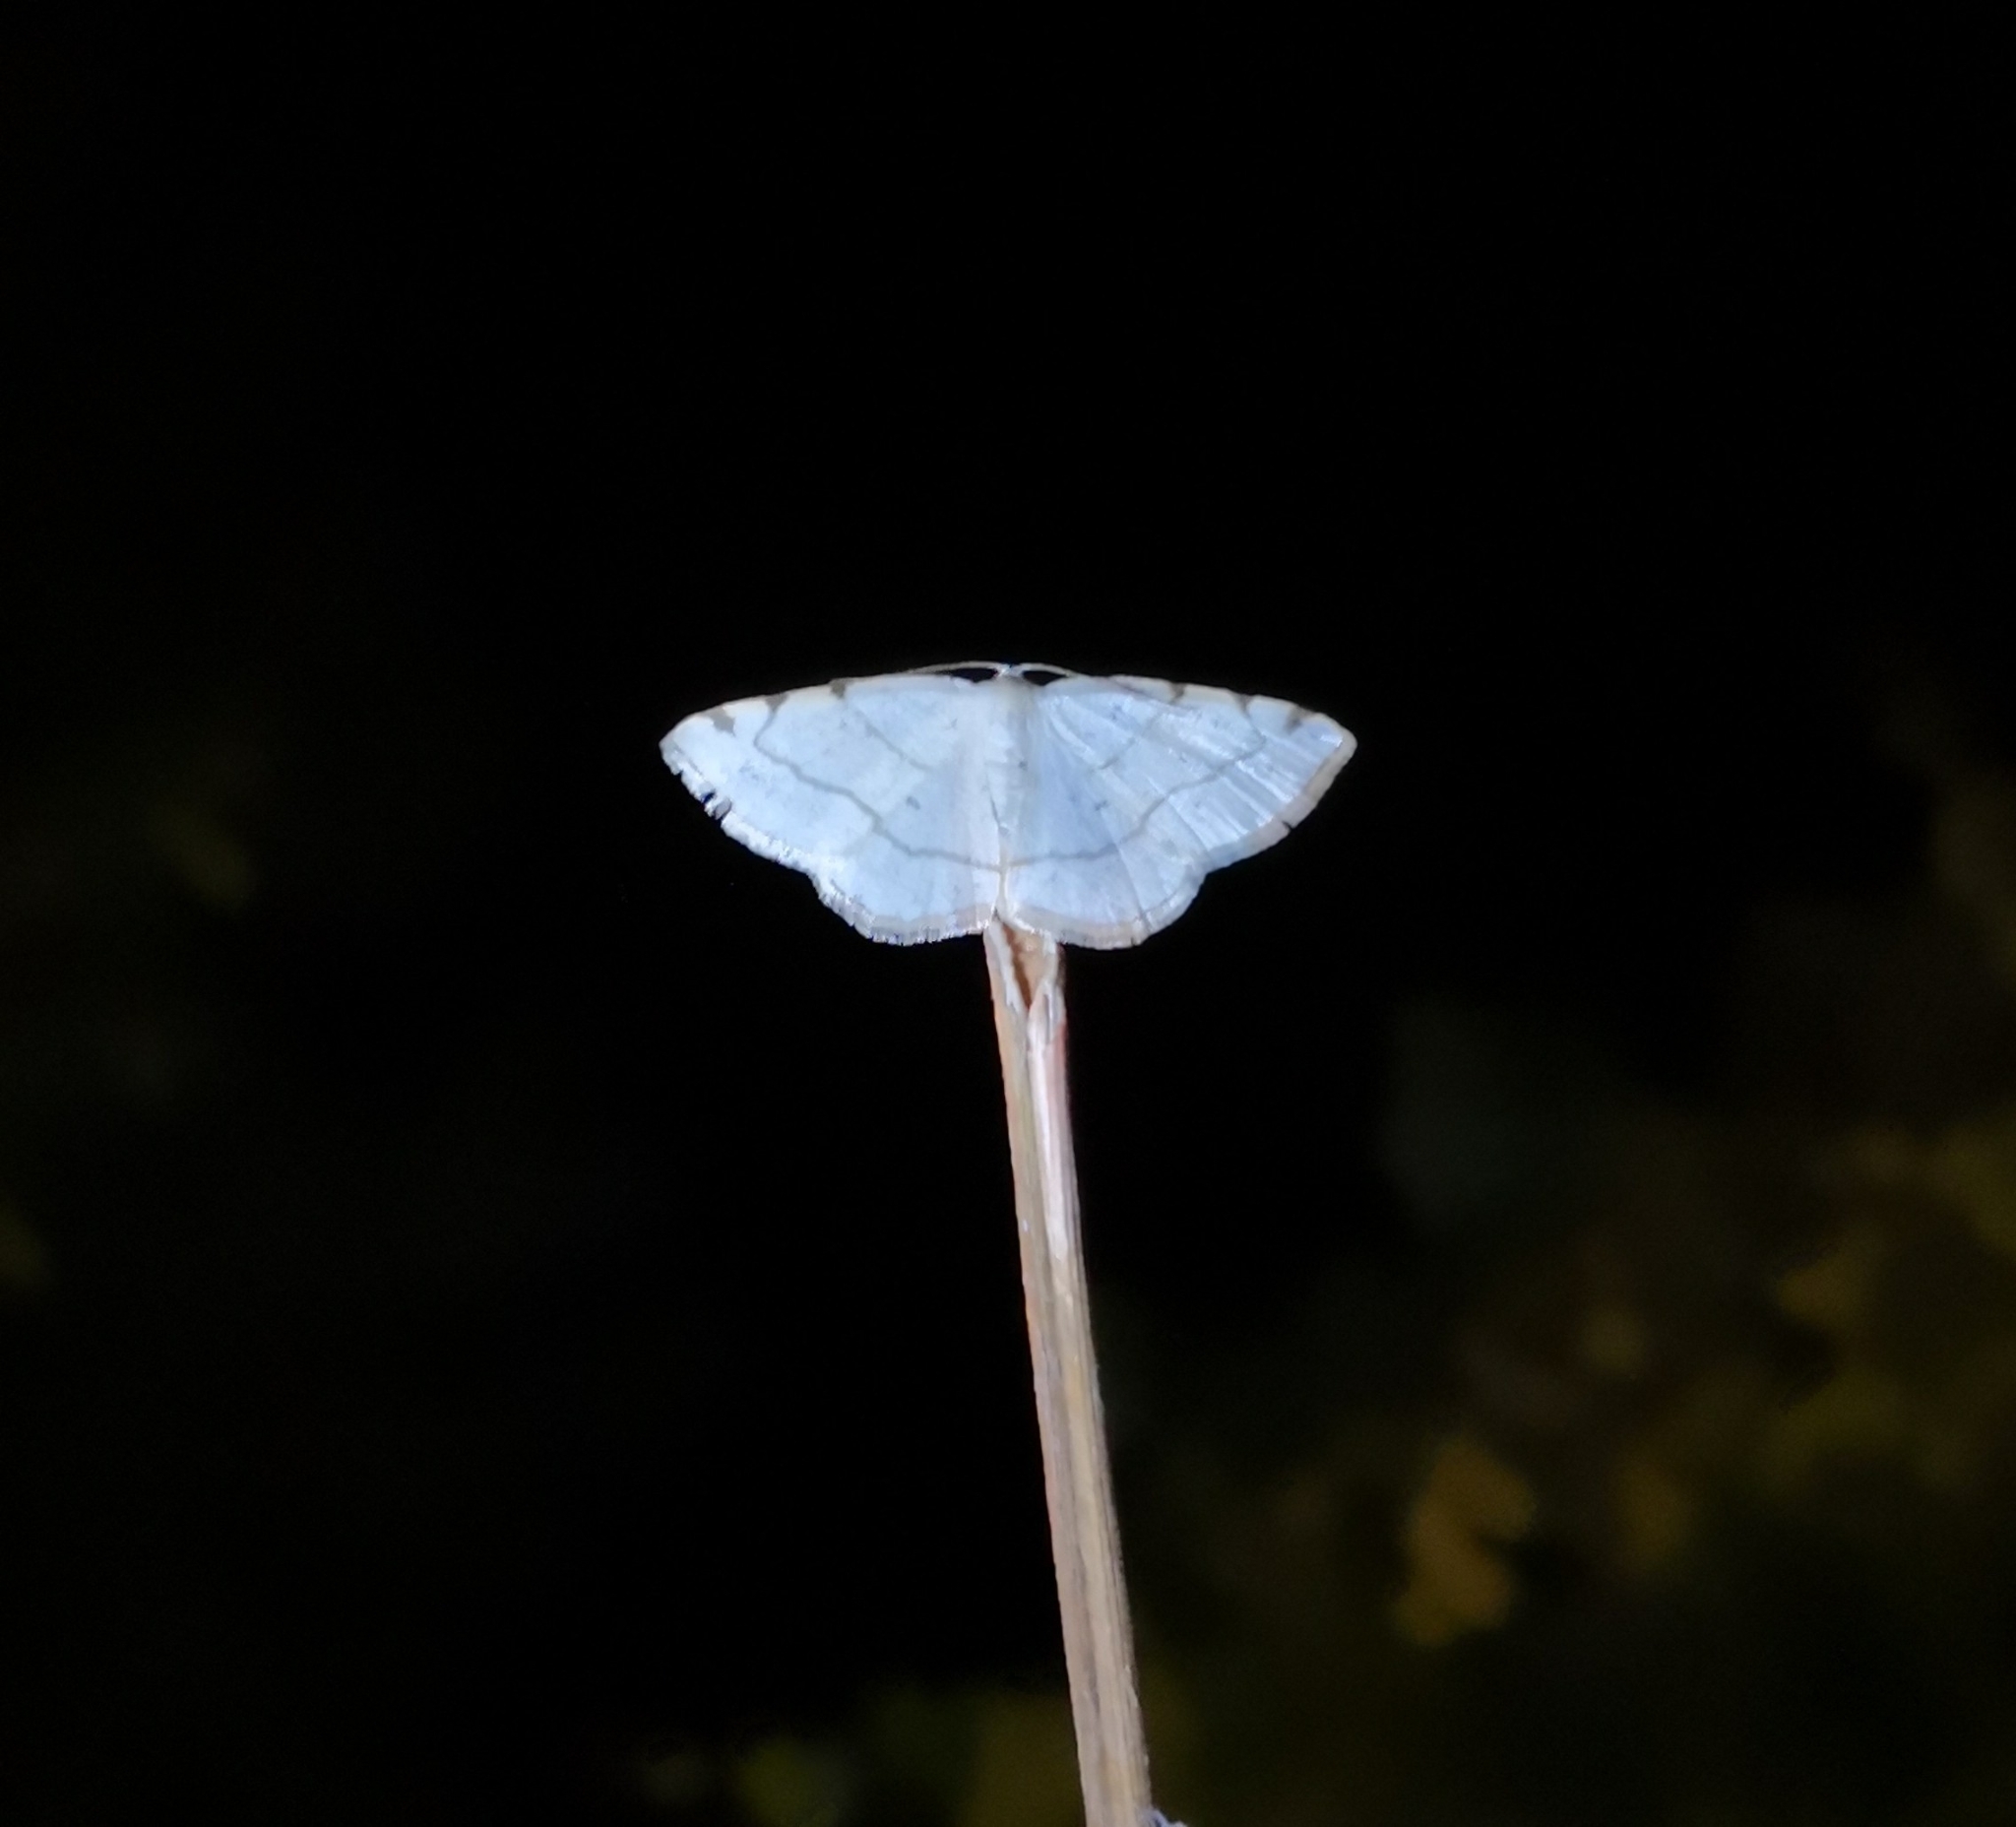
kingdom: Animalia
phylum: Arthropoda
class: Insecta
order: Lepidoptera
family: Geometridae
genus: Stegania
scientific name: Stegania trimaculata
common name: Dorset cream wave
